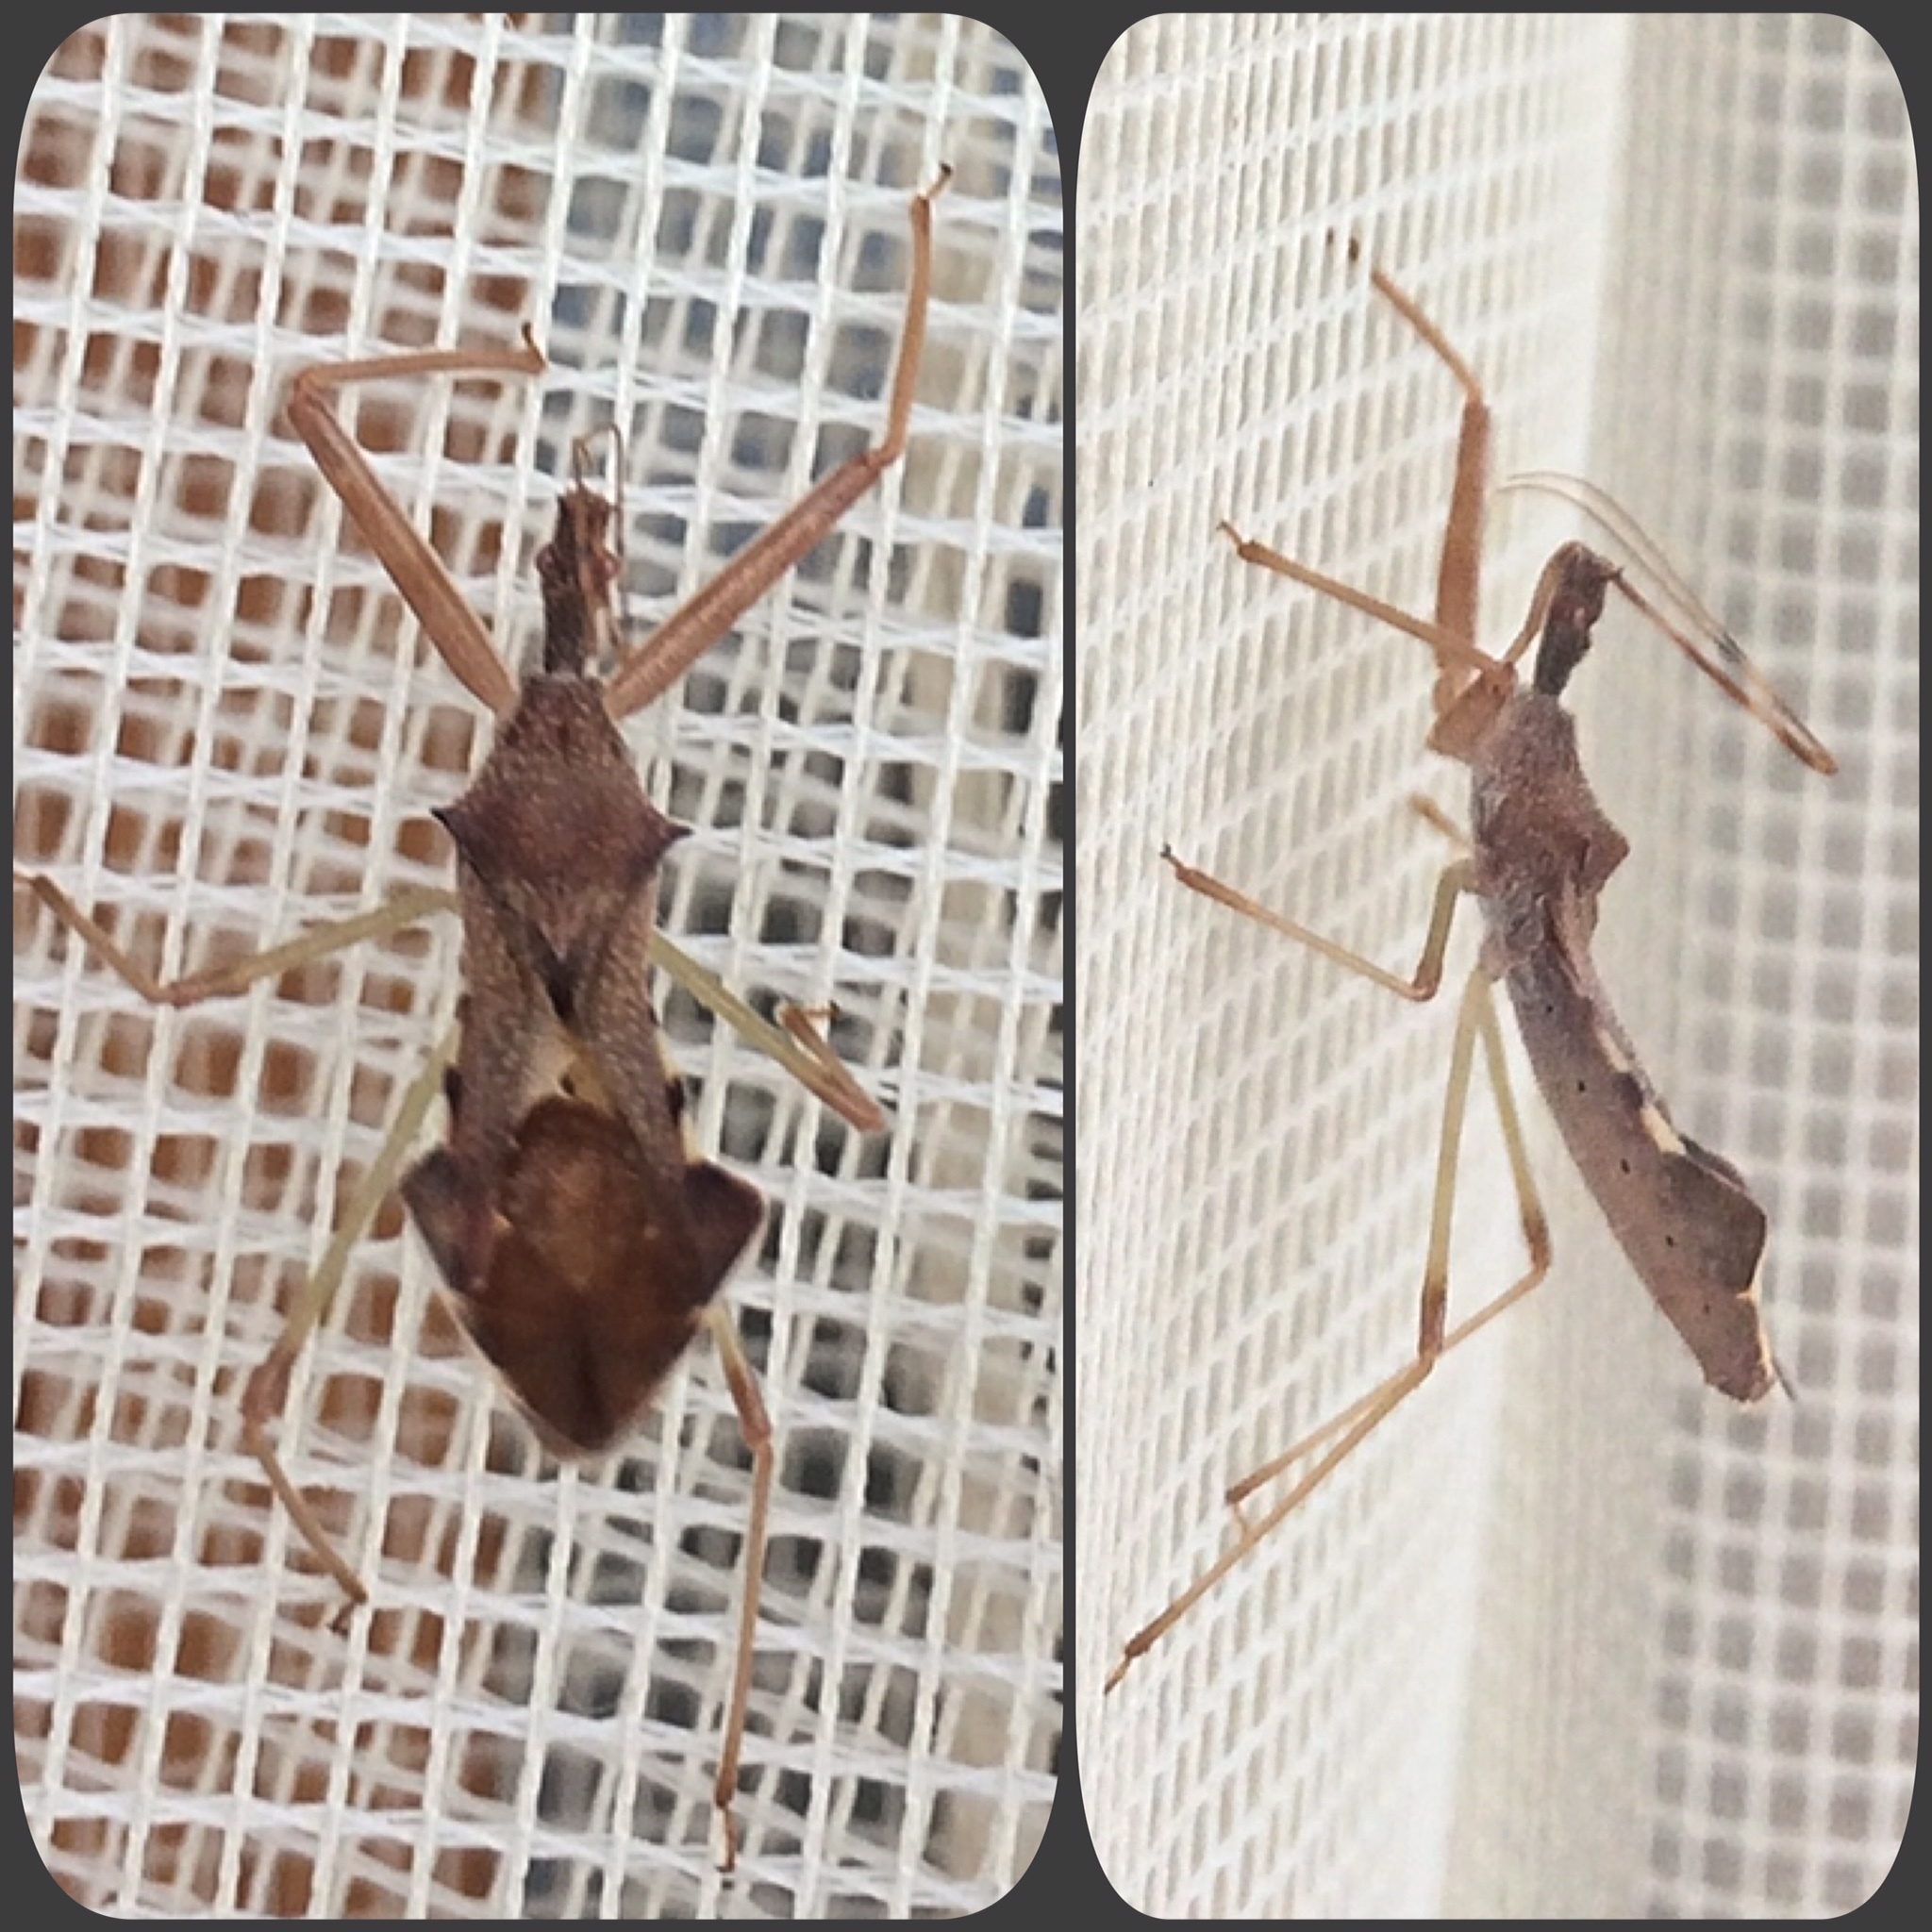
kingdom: Animalia
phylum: Arthropoda
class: Insecta
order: Hemiptera
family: Reduviidae
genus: Nagusta
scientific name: Nagusta goedelii
